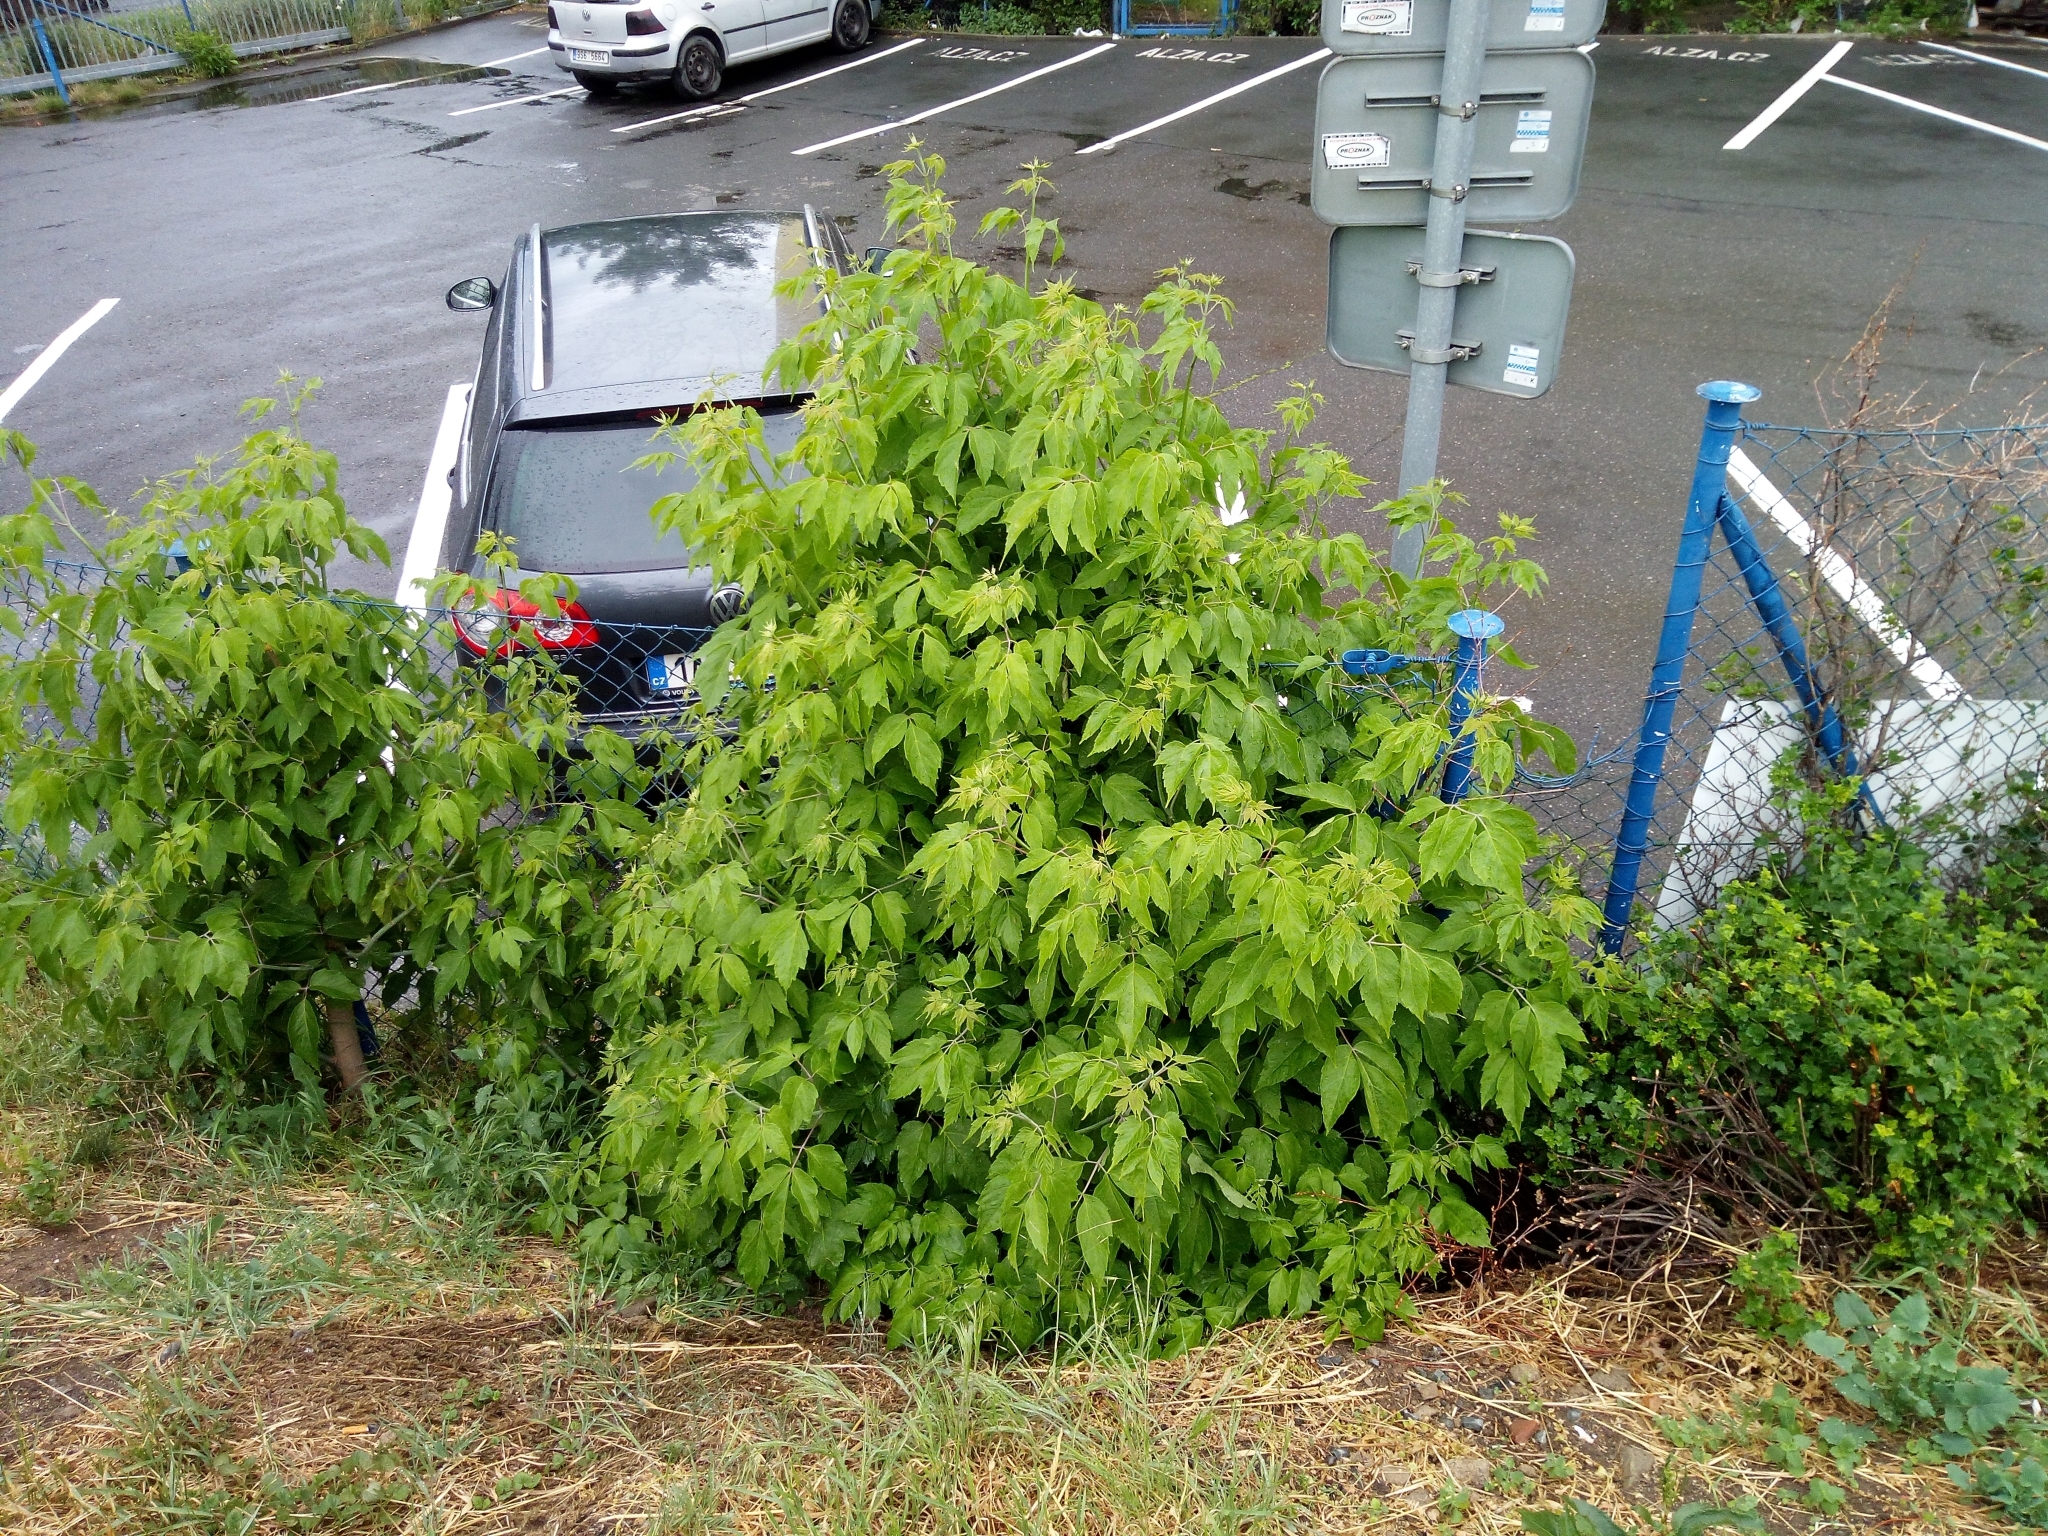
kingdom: Plantae
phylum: Tracheophyta
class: Magnoliopsida
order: Sapindales
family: Sapindaceae
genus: Acer
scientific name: Acer negundo
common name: Ashleaf maple
